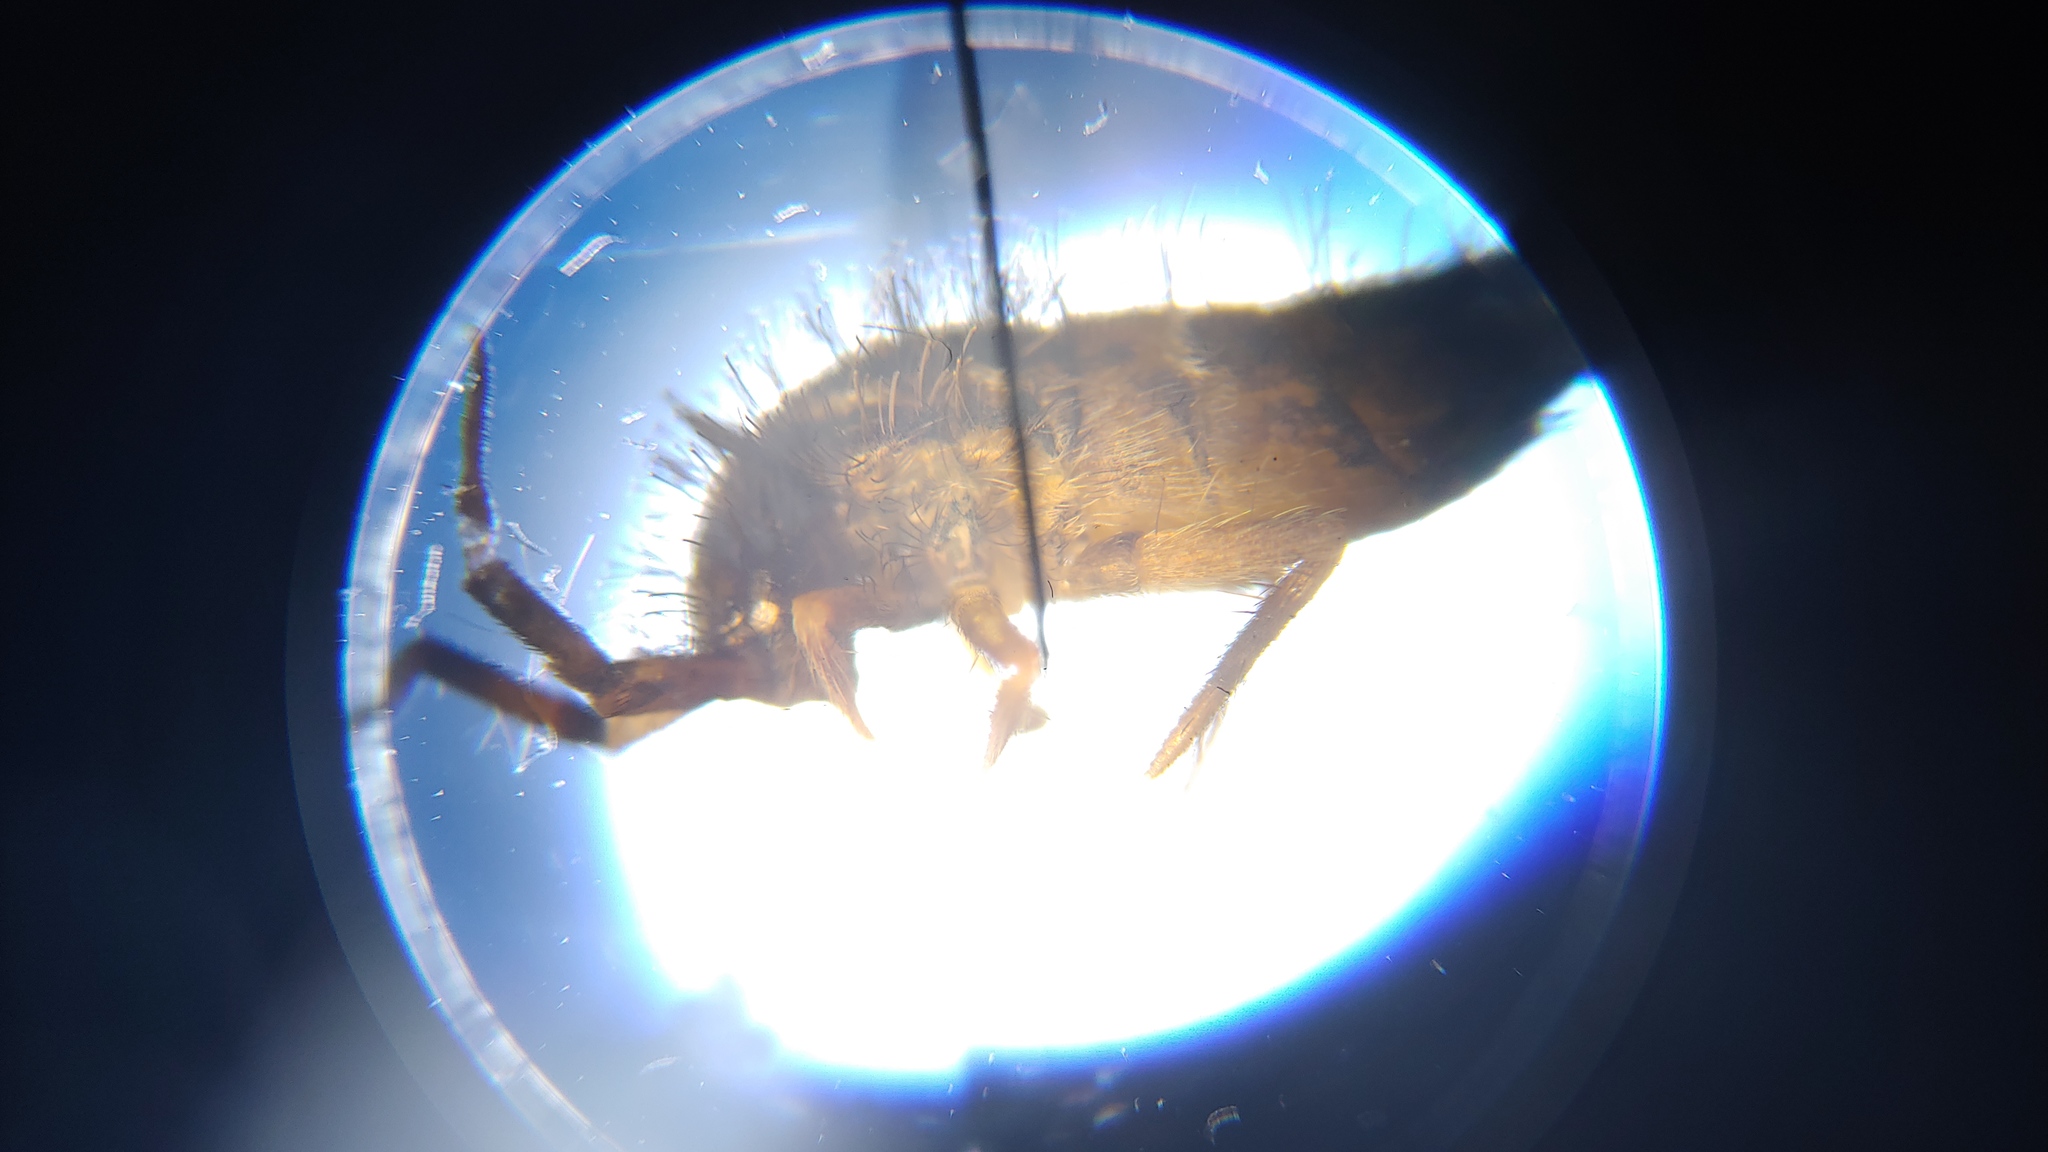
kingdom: Animalia
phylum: Arthropoda
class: Collembola
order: Entomobryomorpha
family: Orchesellidae
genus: Orchesella
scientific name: Orchesella cincta
